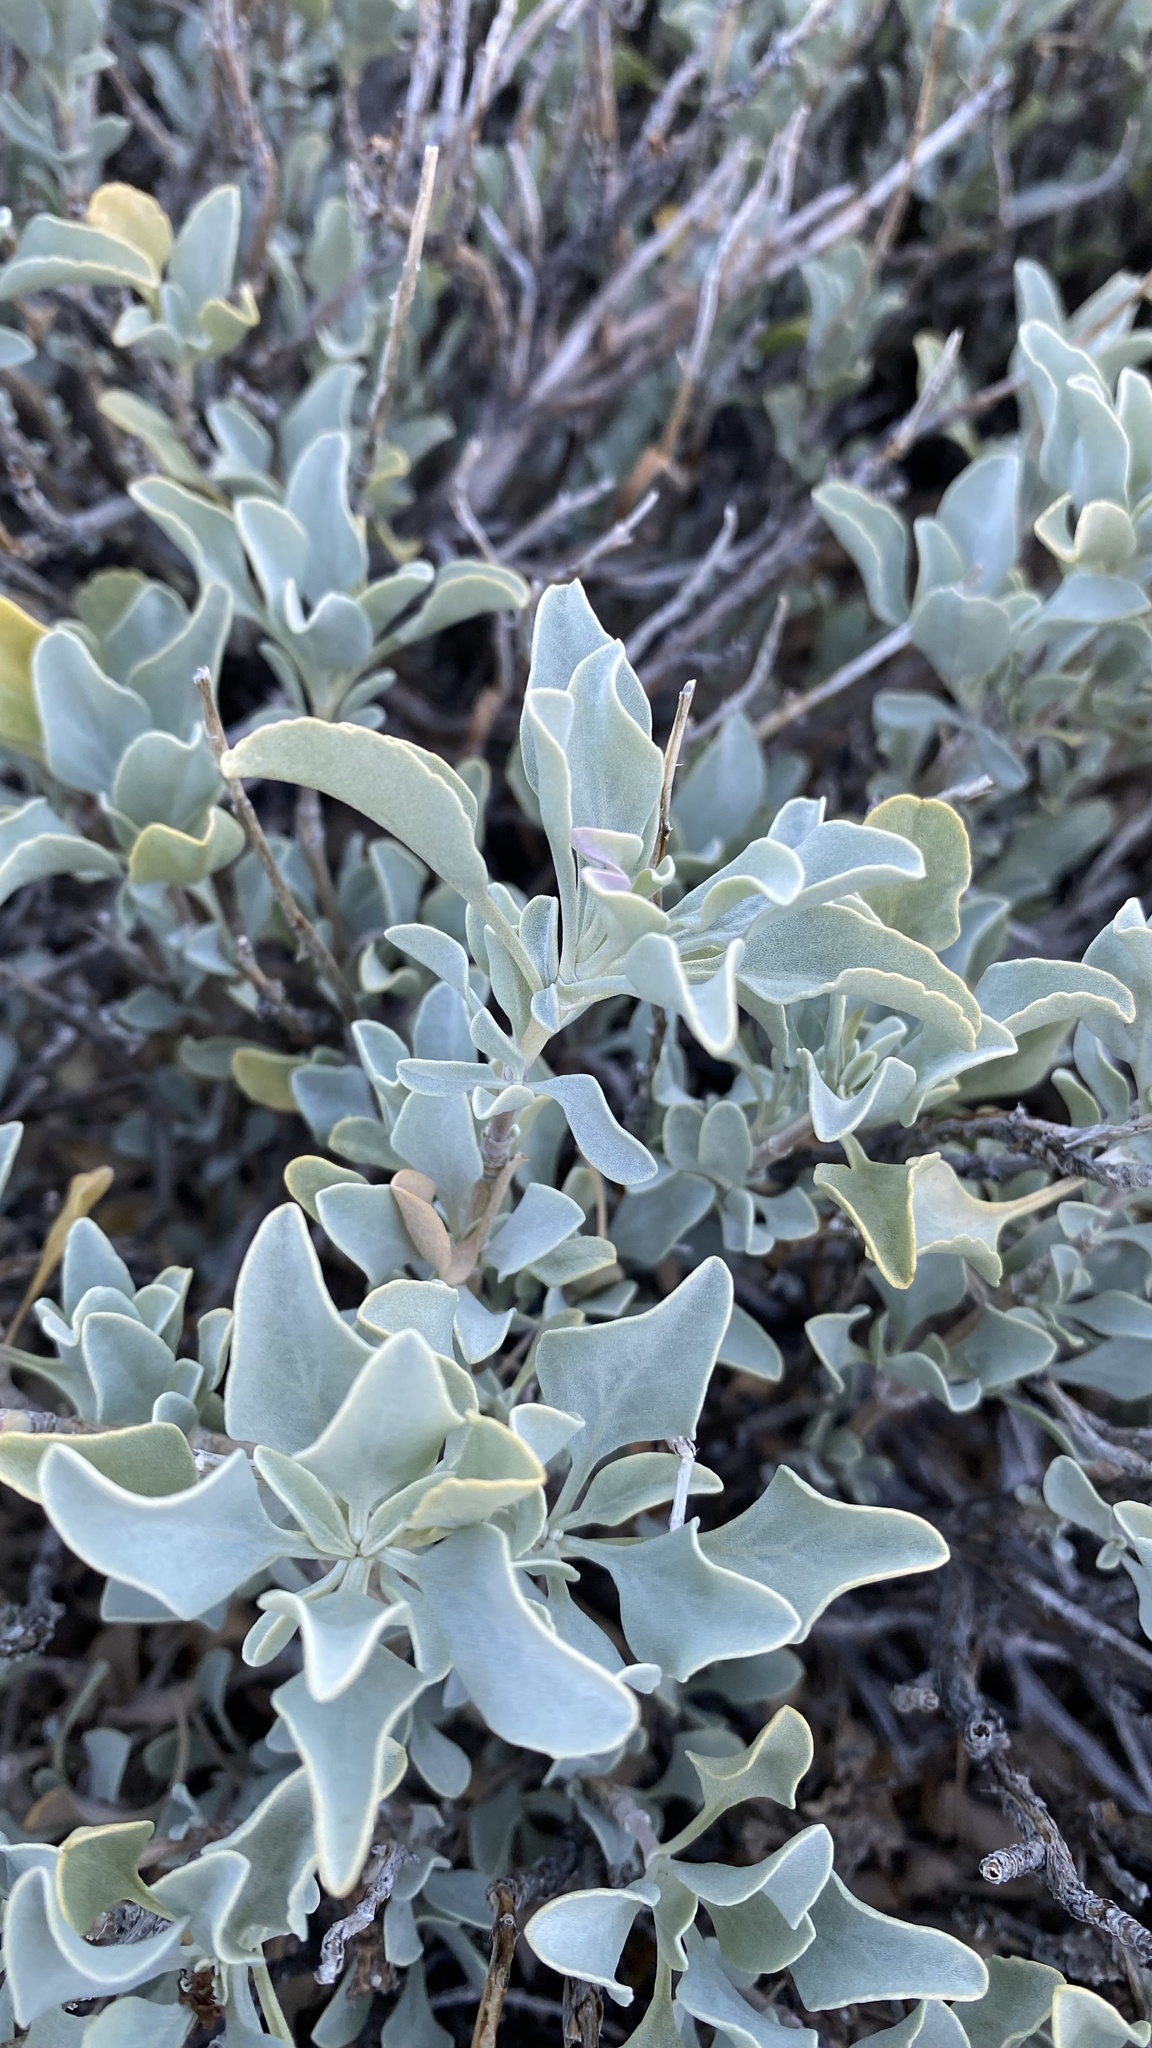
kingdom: Plantae
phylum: Tracheophyta
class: Magnoliopsida
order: Lamiales
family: Lamiaceae
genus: Salvia
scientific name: Salvia pachyphylla
